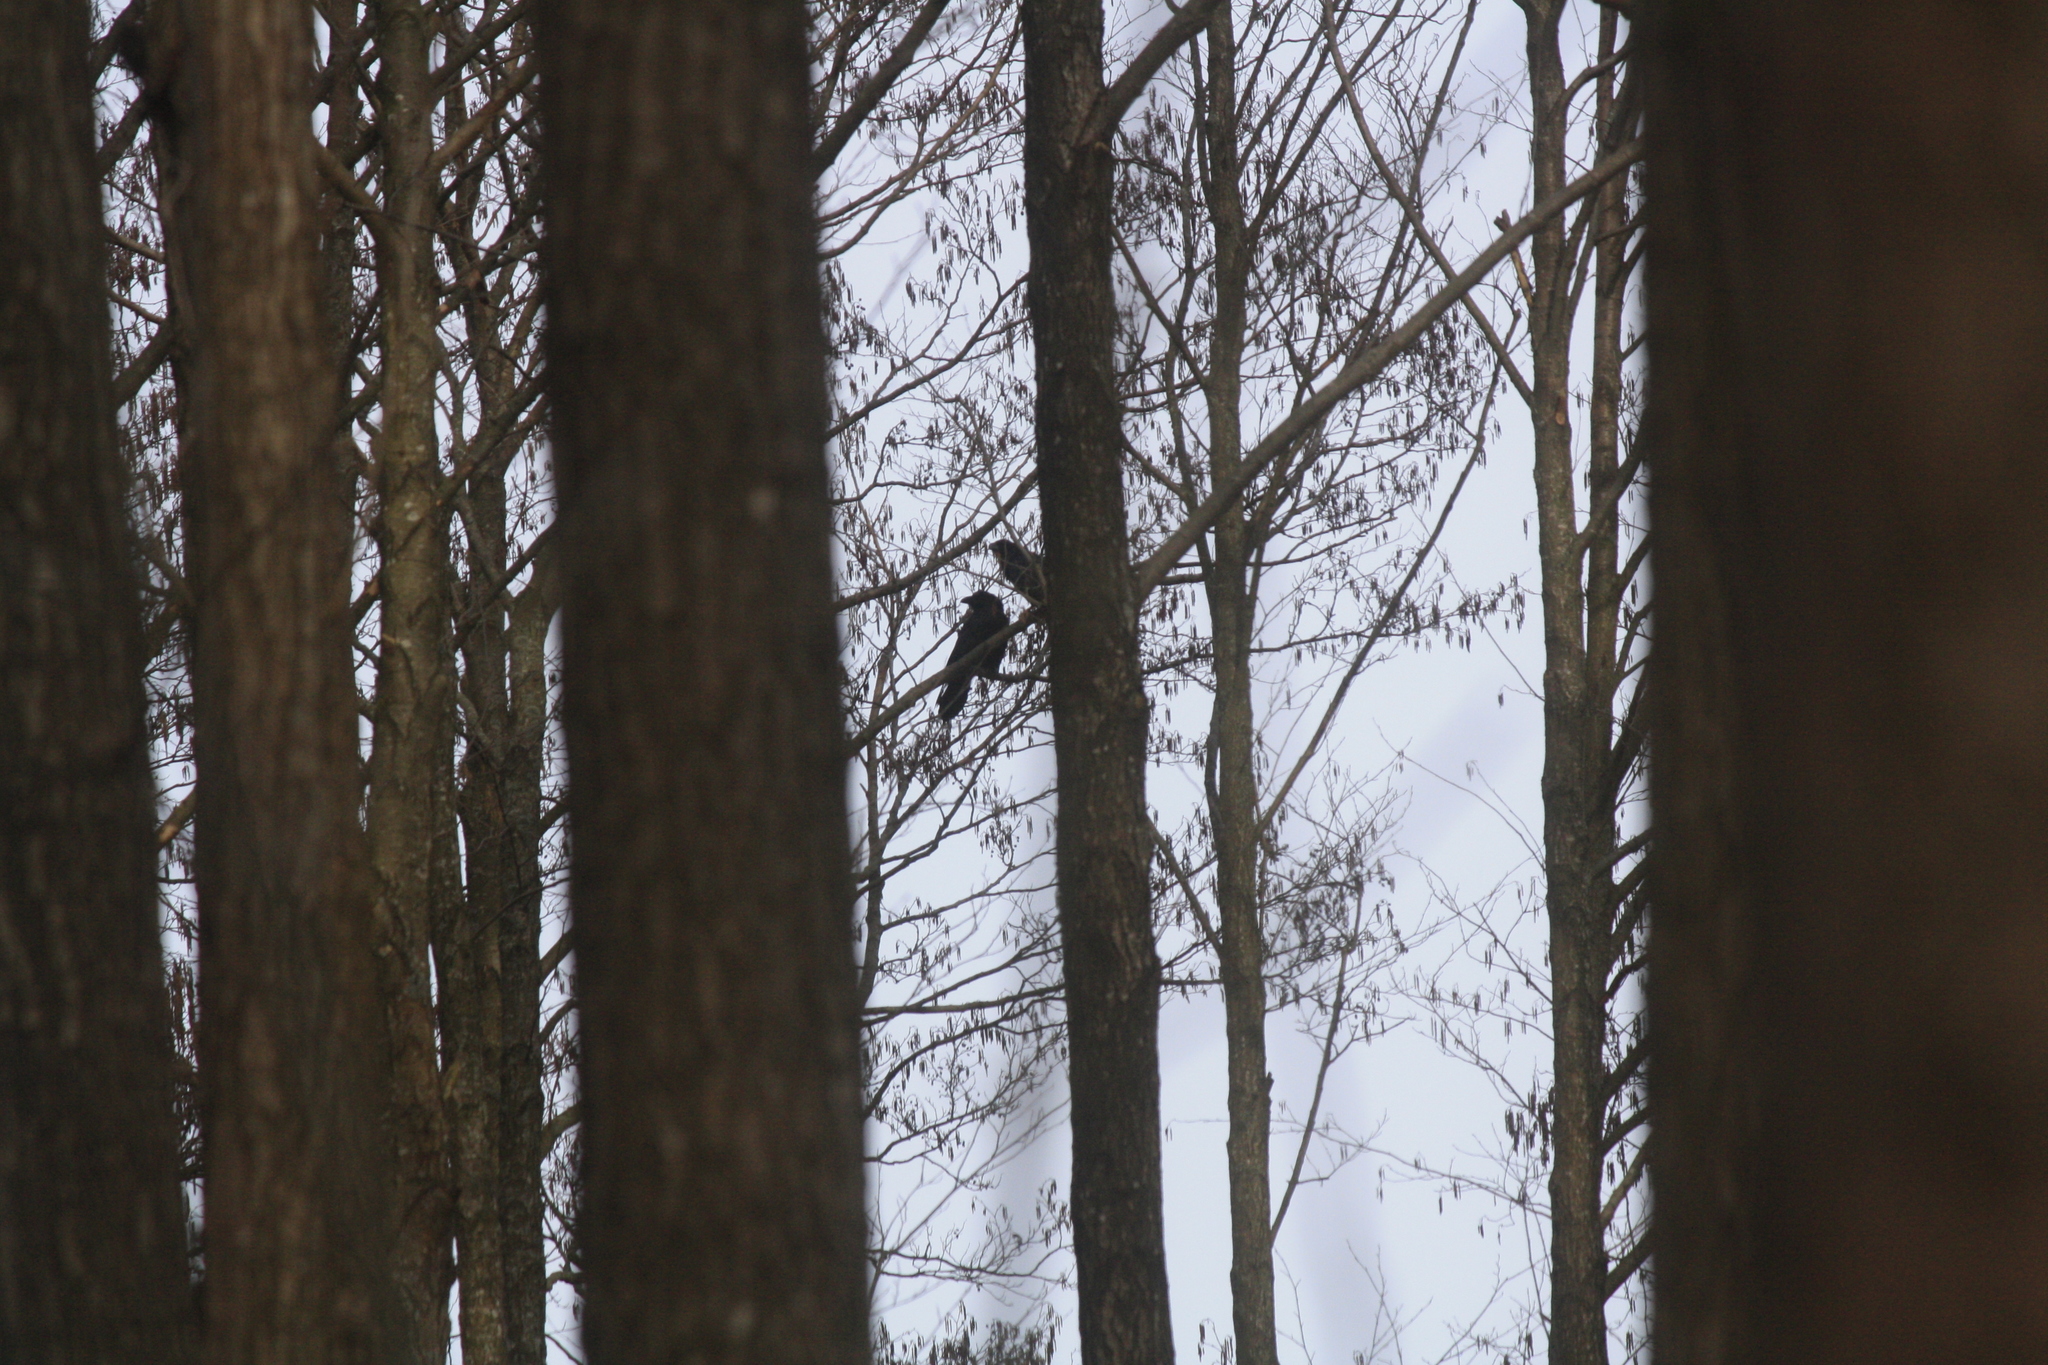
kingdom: Animalia
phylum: Chordata
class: Aves
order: Passeriformes
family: Corvidae
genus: Corvus
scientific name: Corvus corax
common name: Common raven
